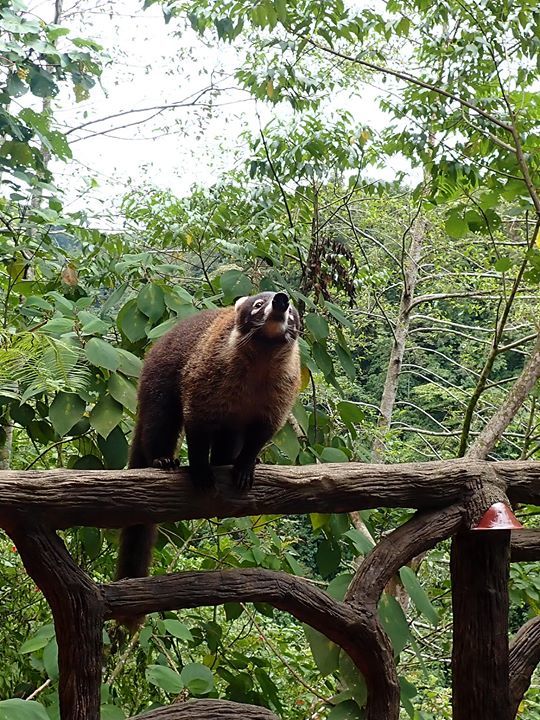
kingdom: Animalia
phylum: Chordata
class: Mammalia
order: Carnivora
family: Procyonidae
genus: Nasua
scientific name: Nasua narica
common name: White-nosed coati
